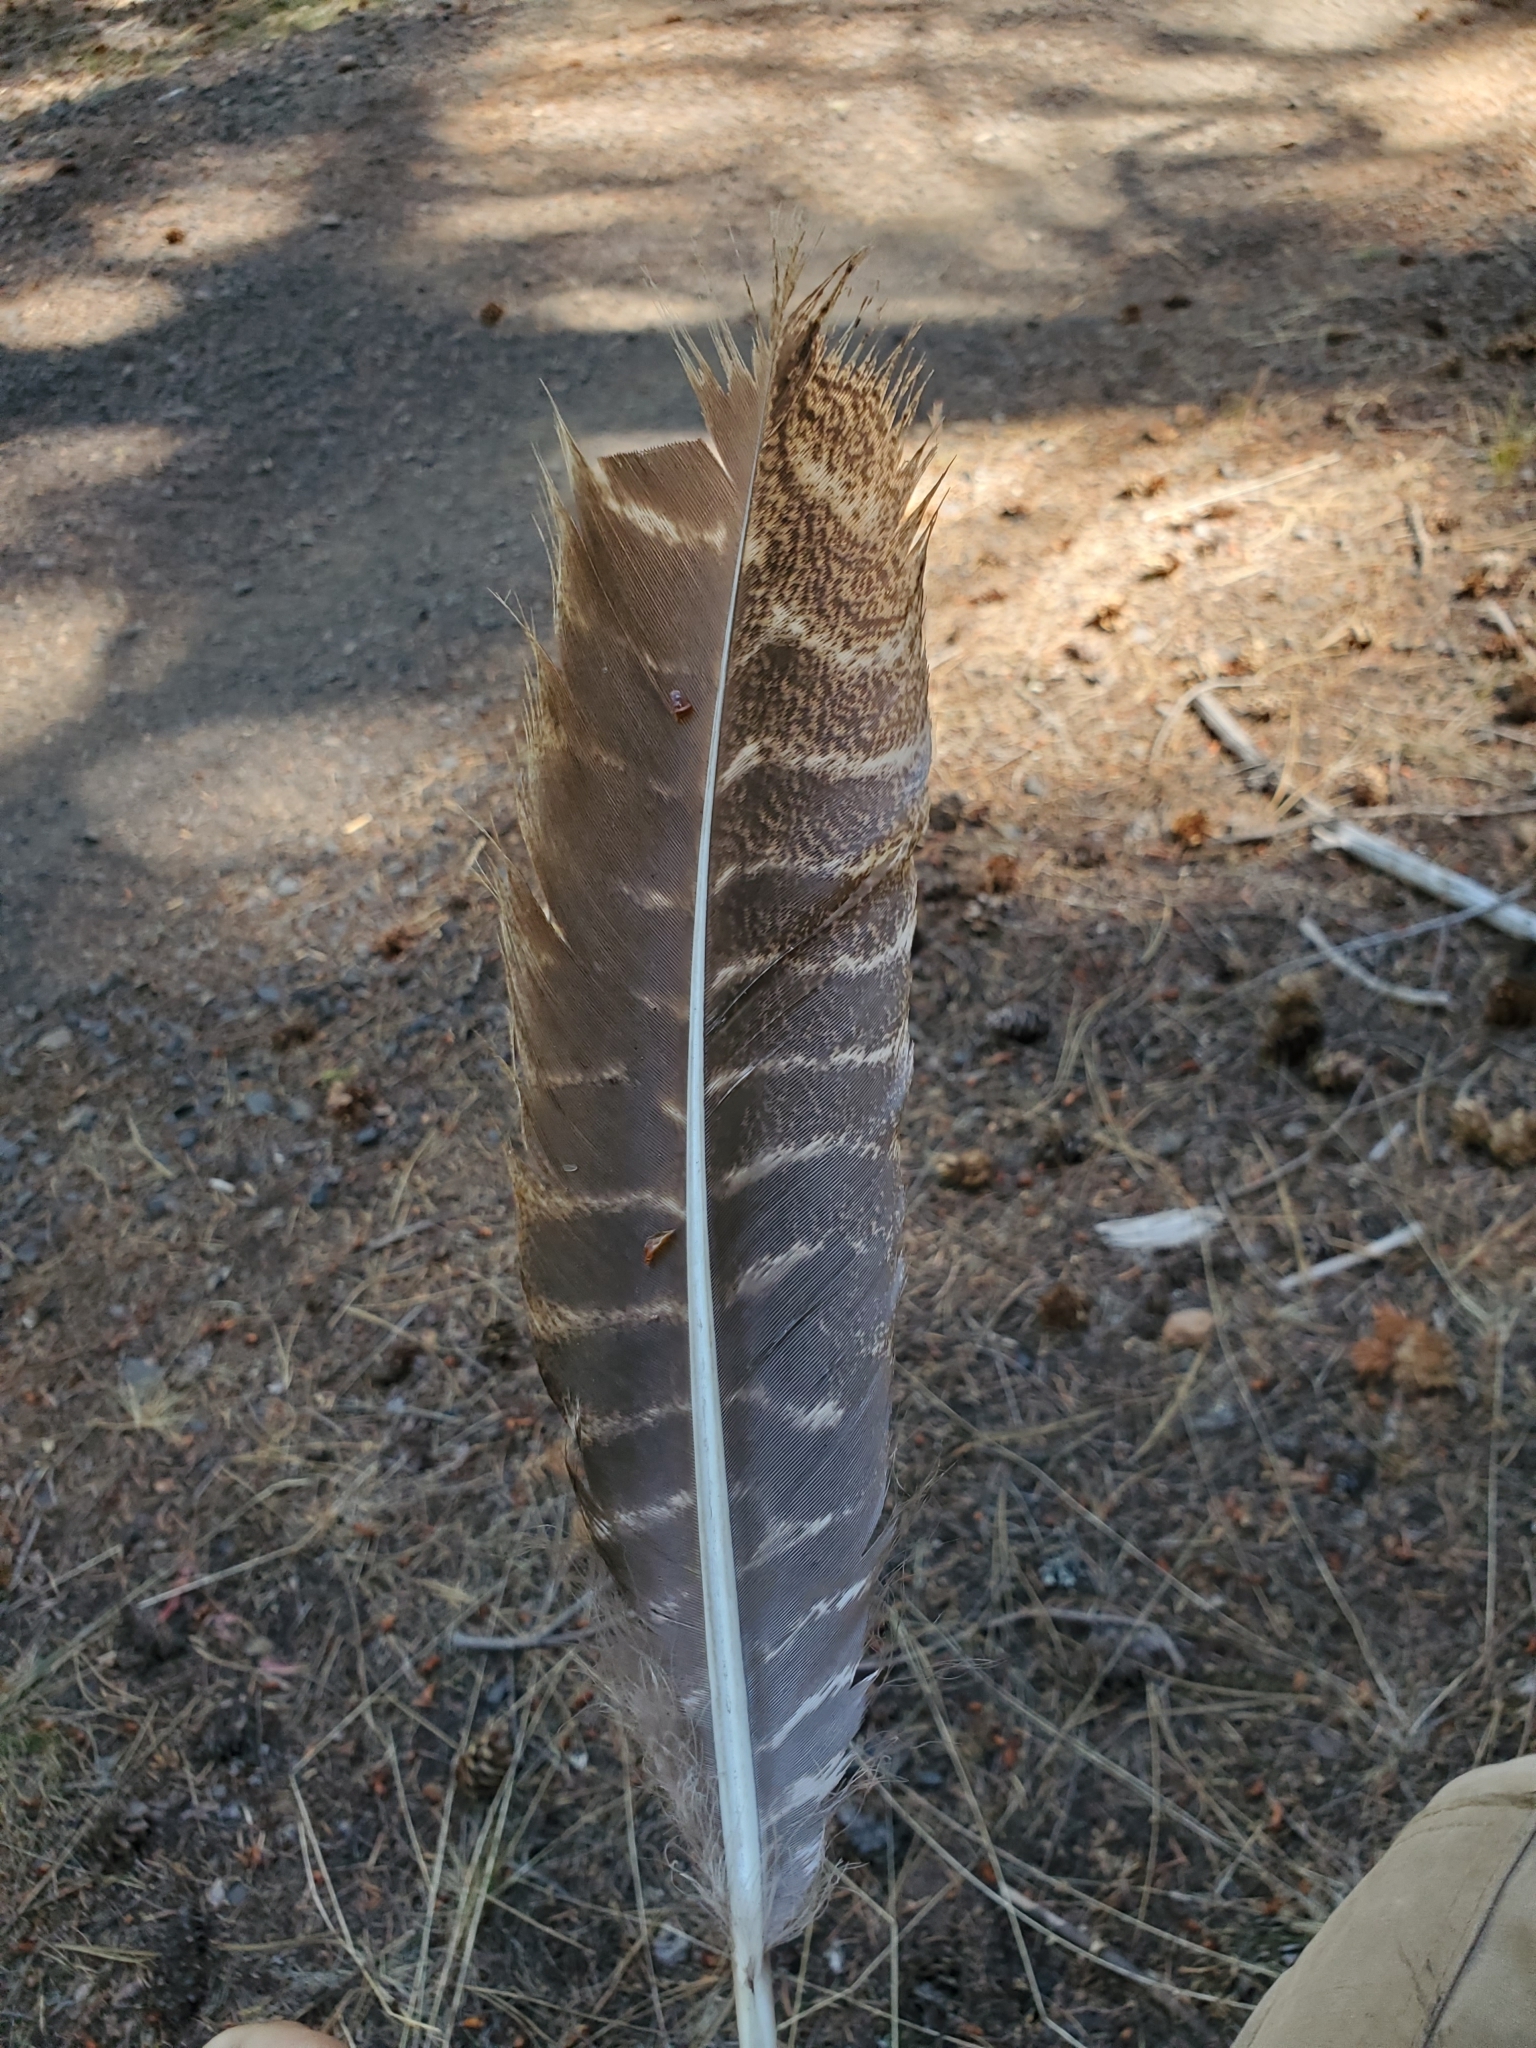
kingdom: Animalia
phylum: Chordata
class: Aves
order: Galliformes
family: Phasianidae
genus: Meleagris
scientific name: Meleagris gallopavo
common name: Wild turkey
